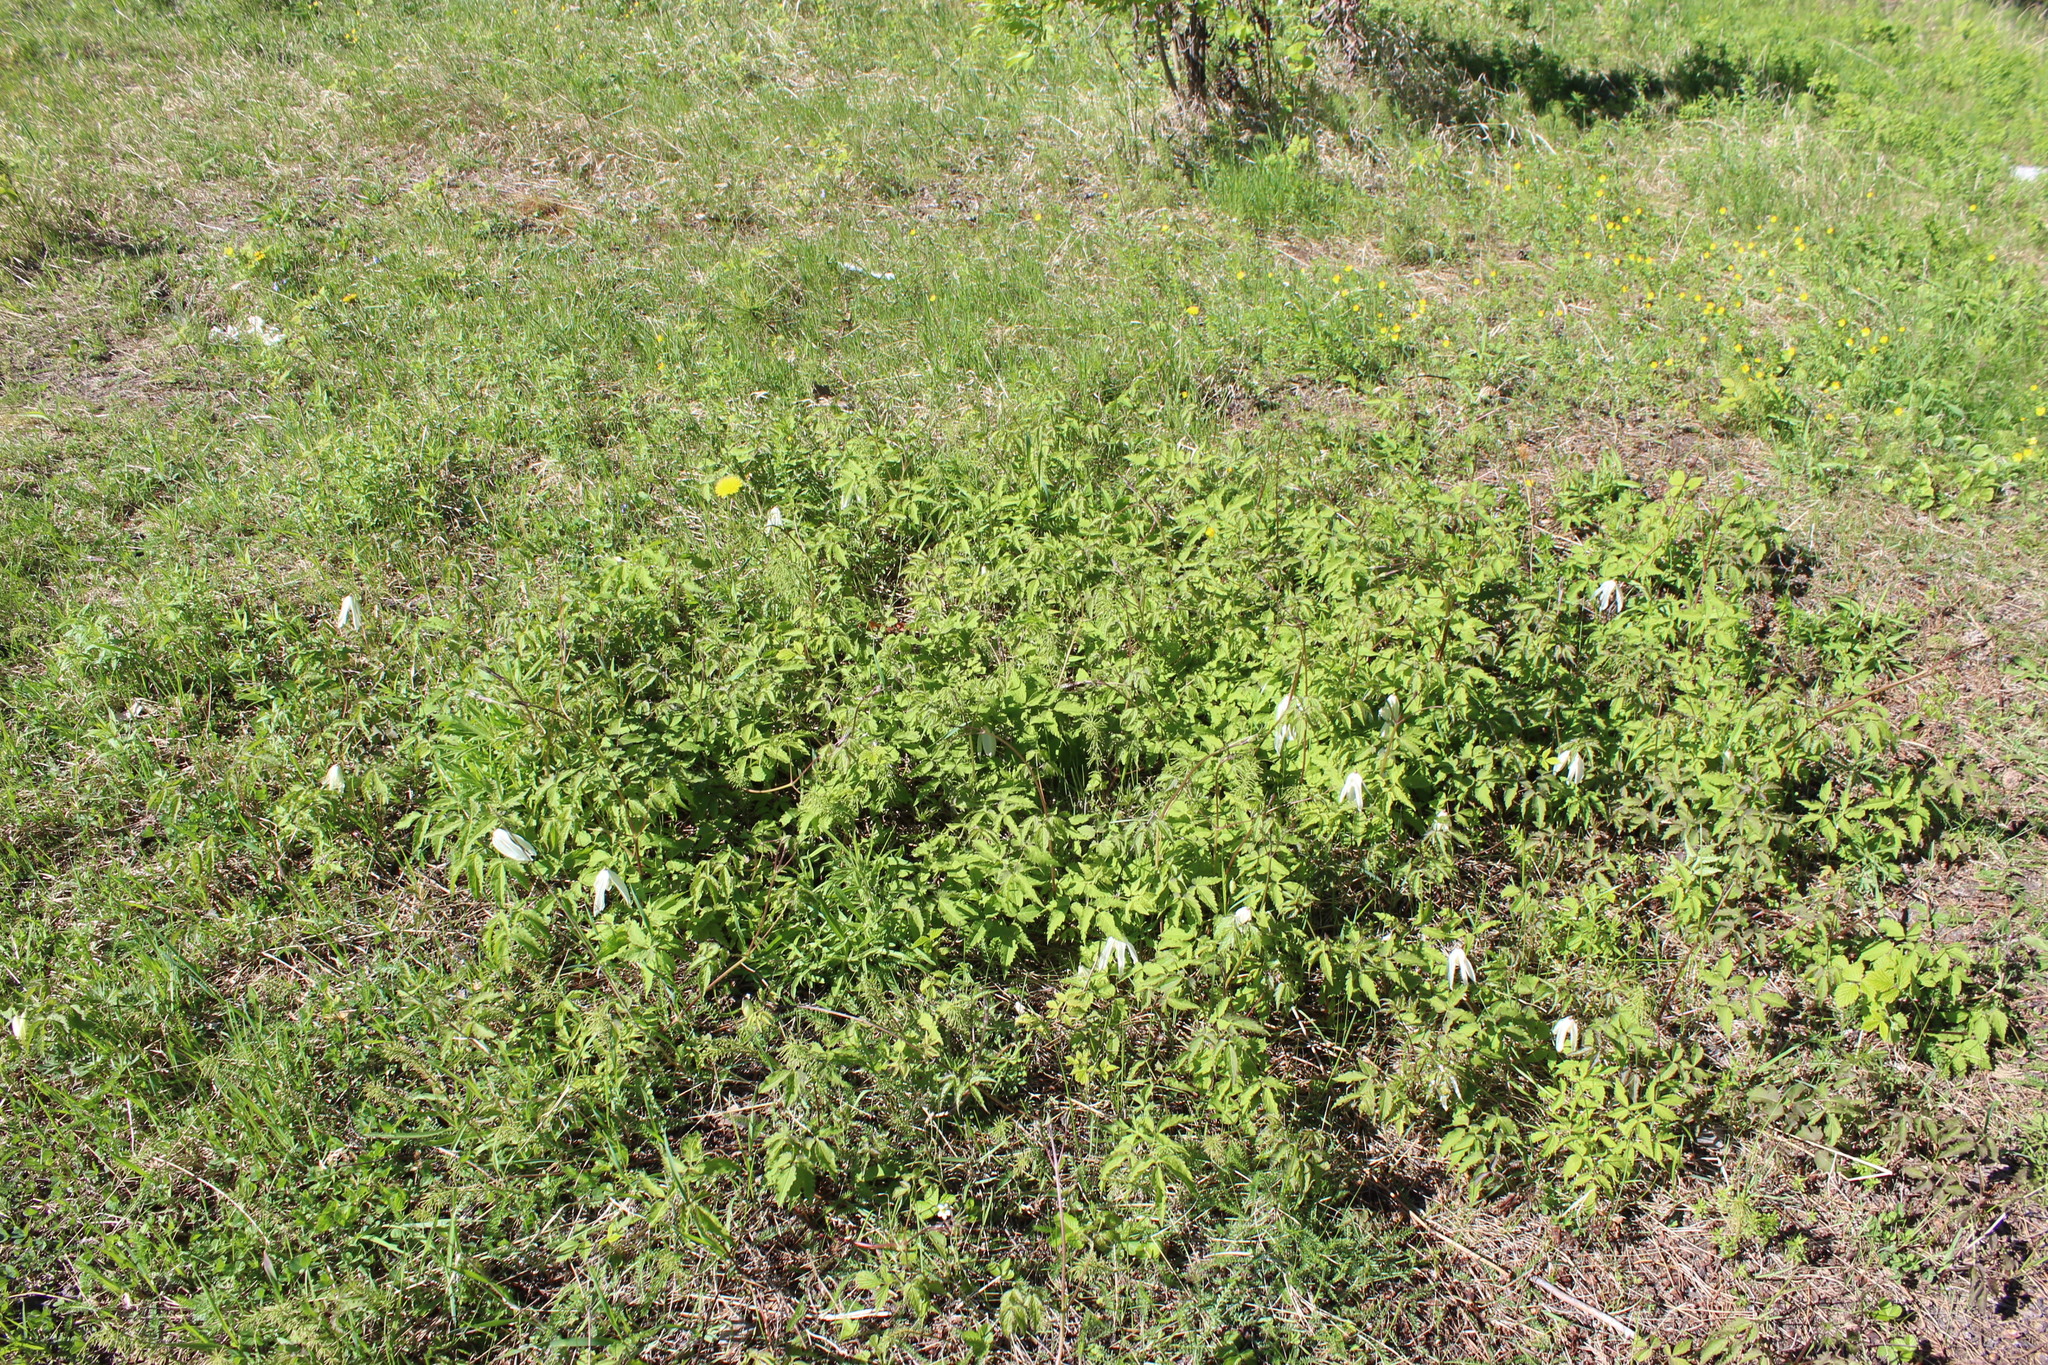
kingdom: Plantae
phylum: Tracheophyta
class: Magnoliopsida
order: Ranunculales
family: Ranunculaceae
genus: Clematis
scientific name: Clematis sibirica
